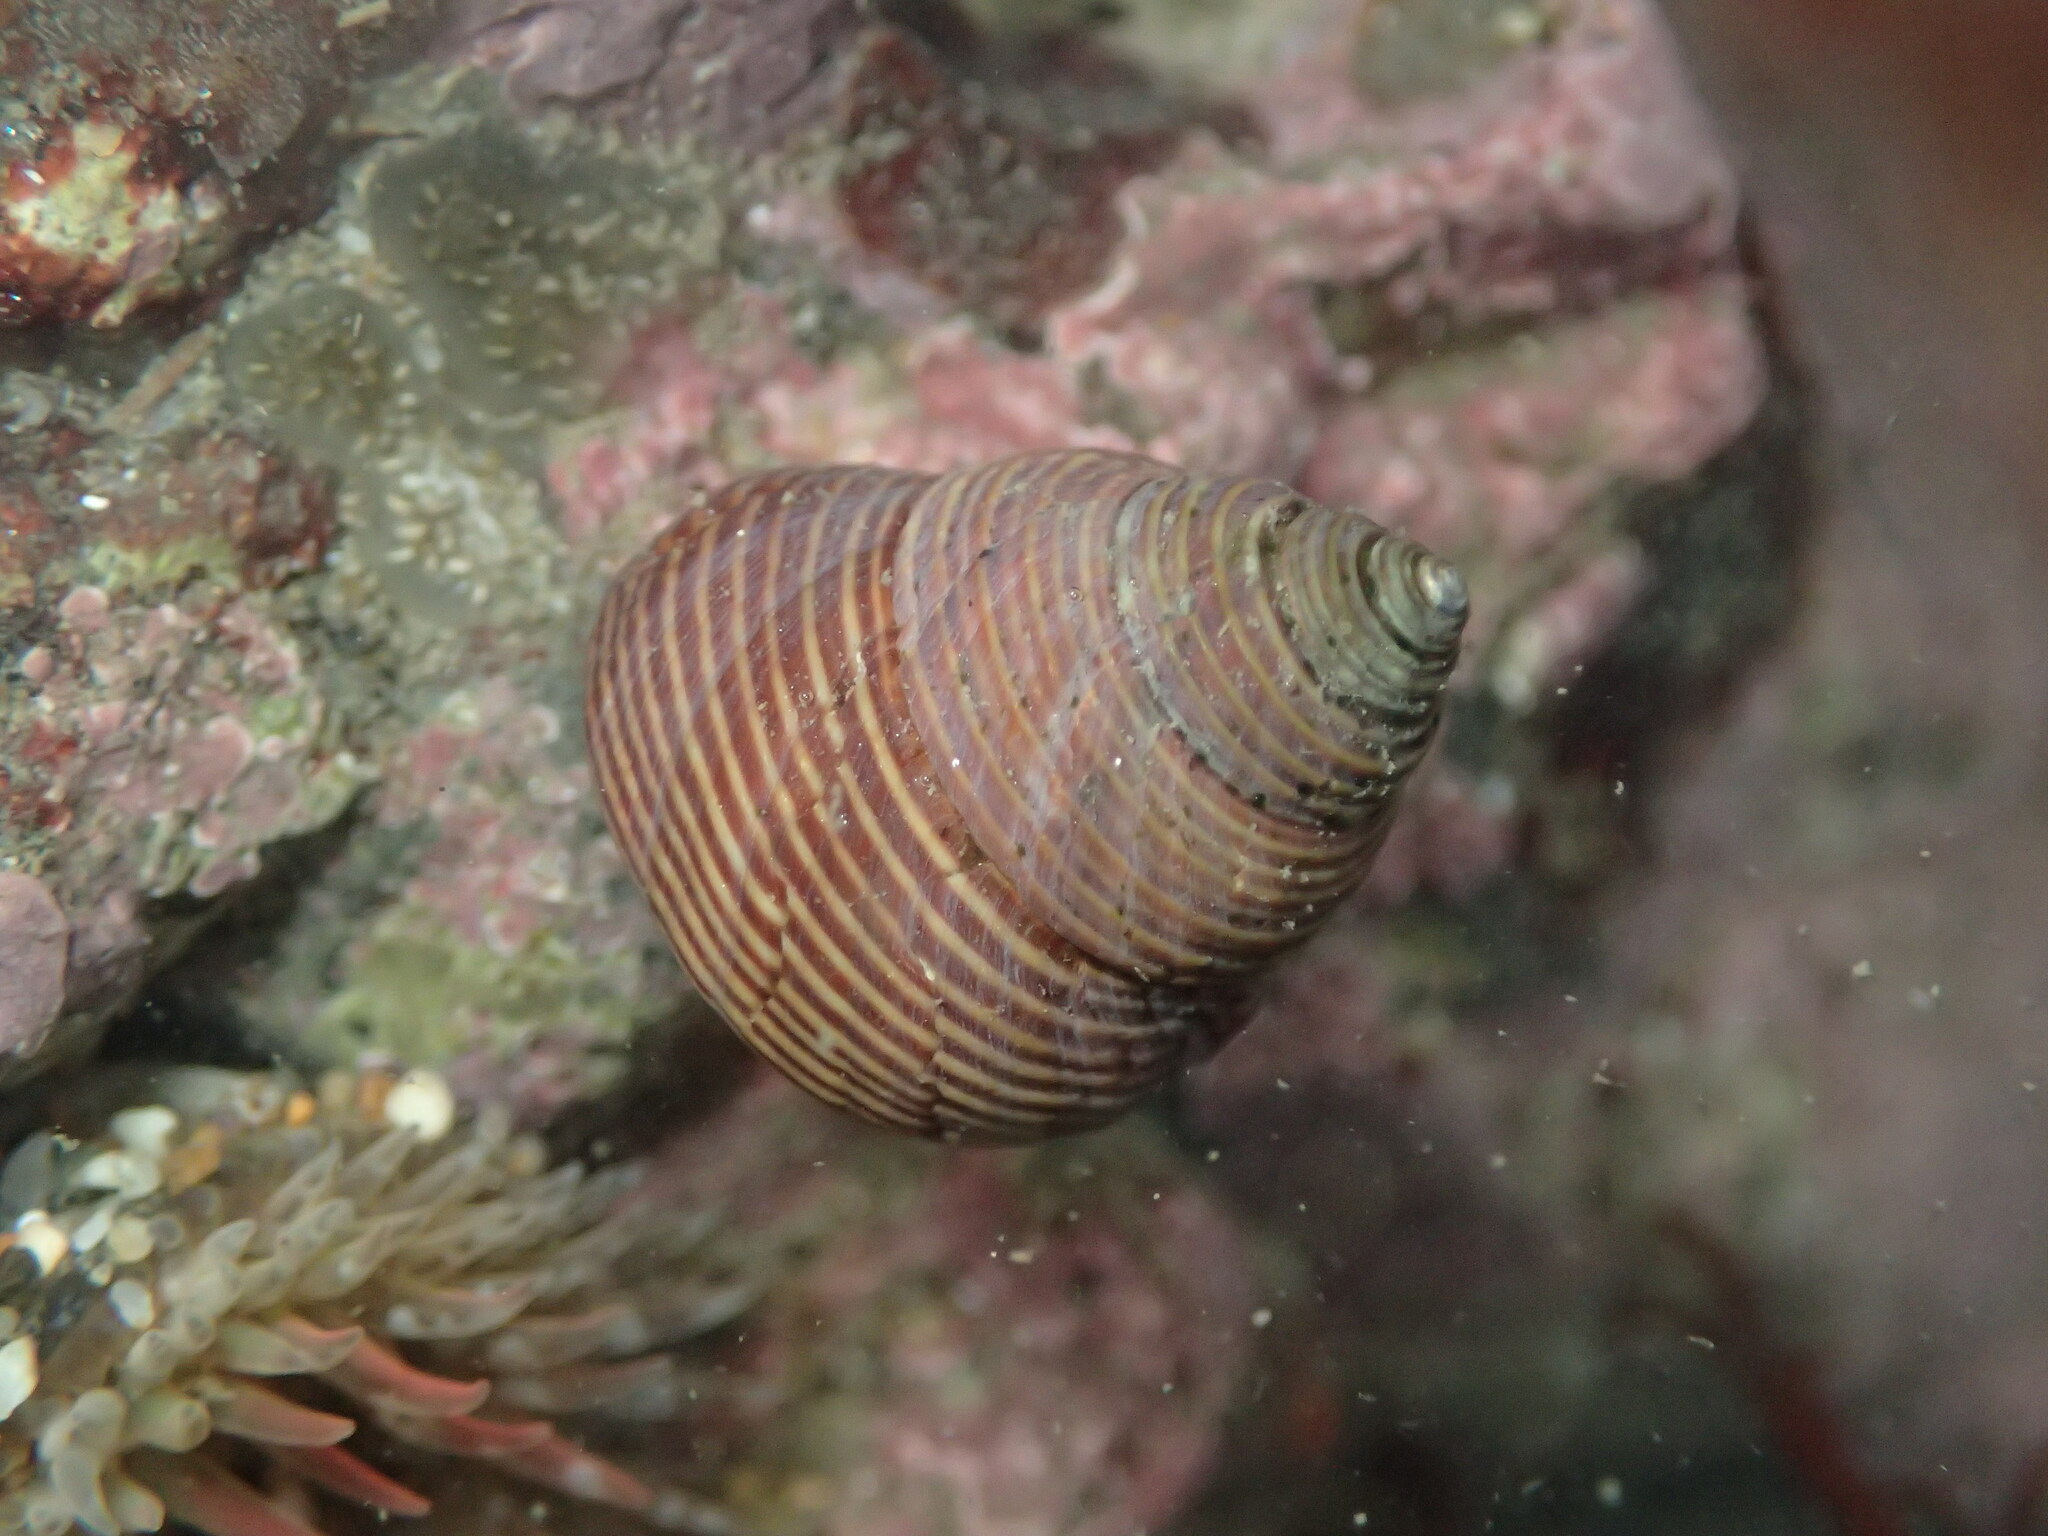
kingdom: Animalia
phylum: Mollusca
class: Gastropoda
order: Trochida
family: Calliostomatidae
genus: Calliostoma
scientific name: Calliostoma ligatum
